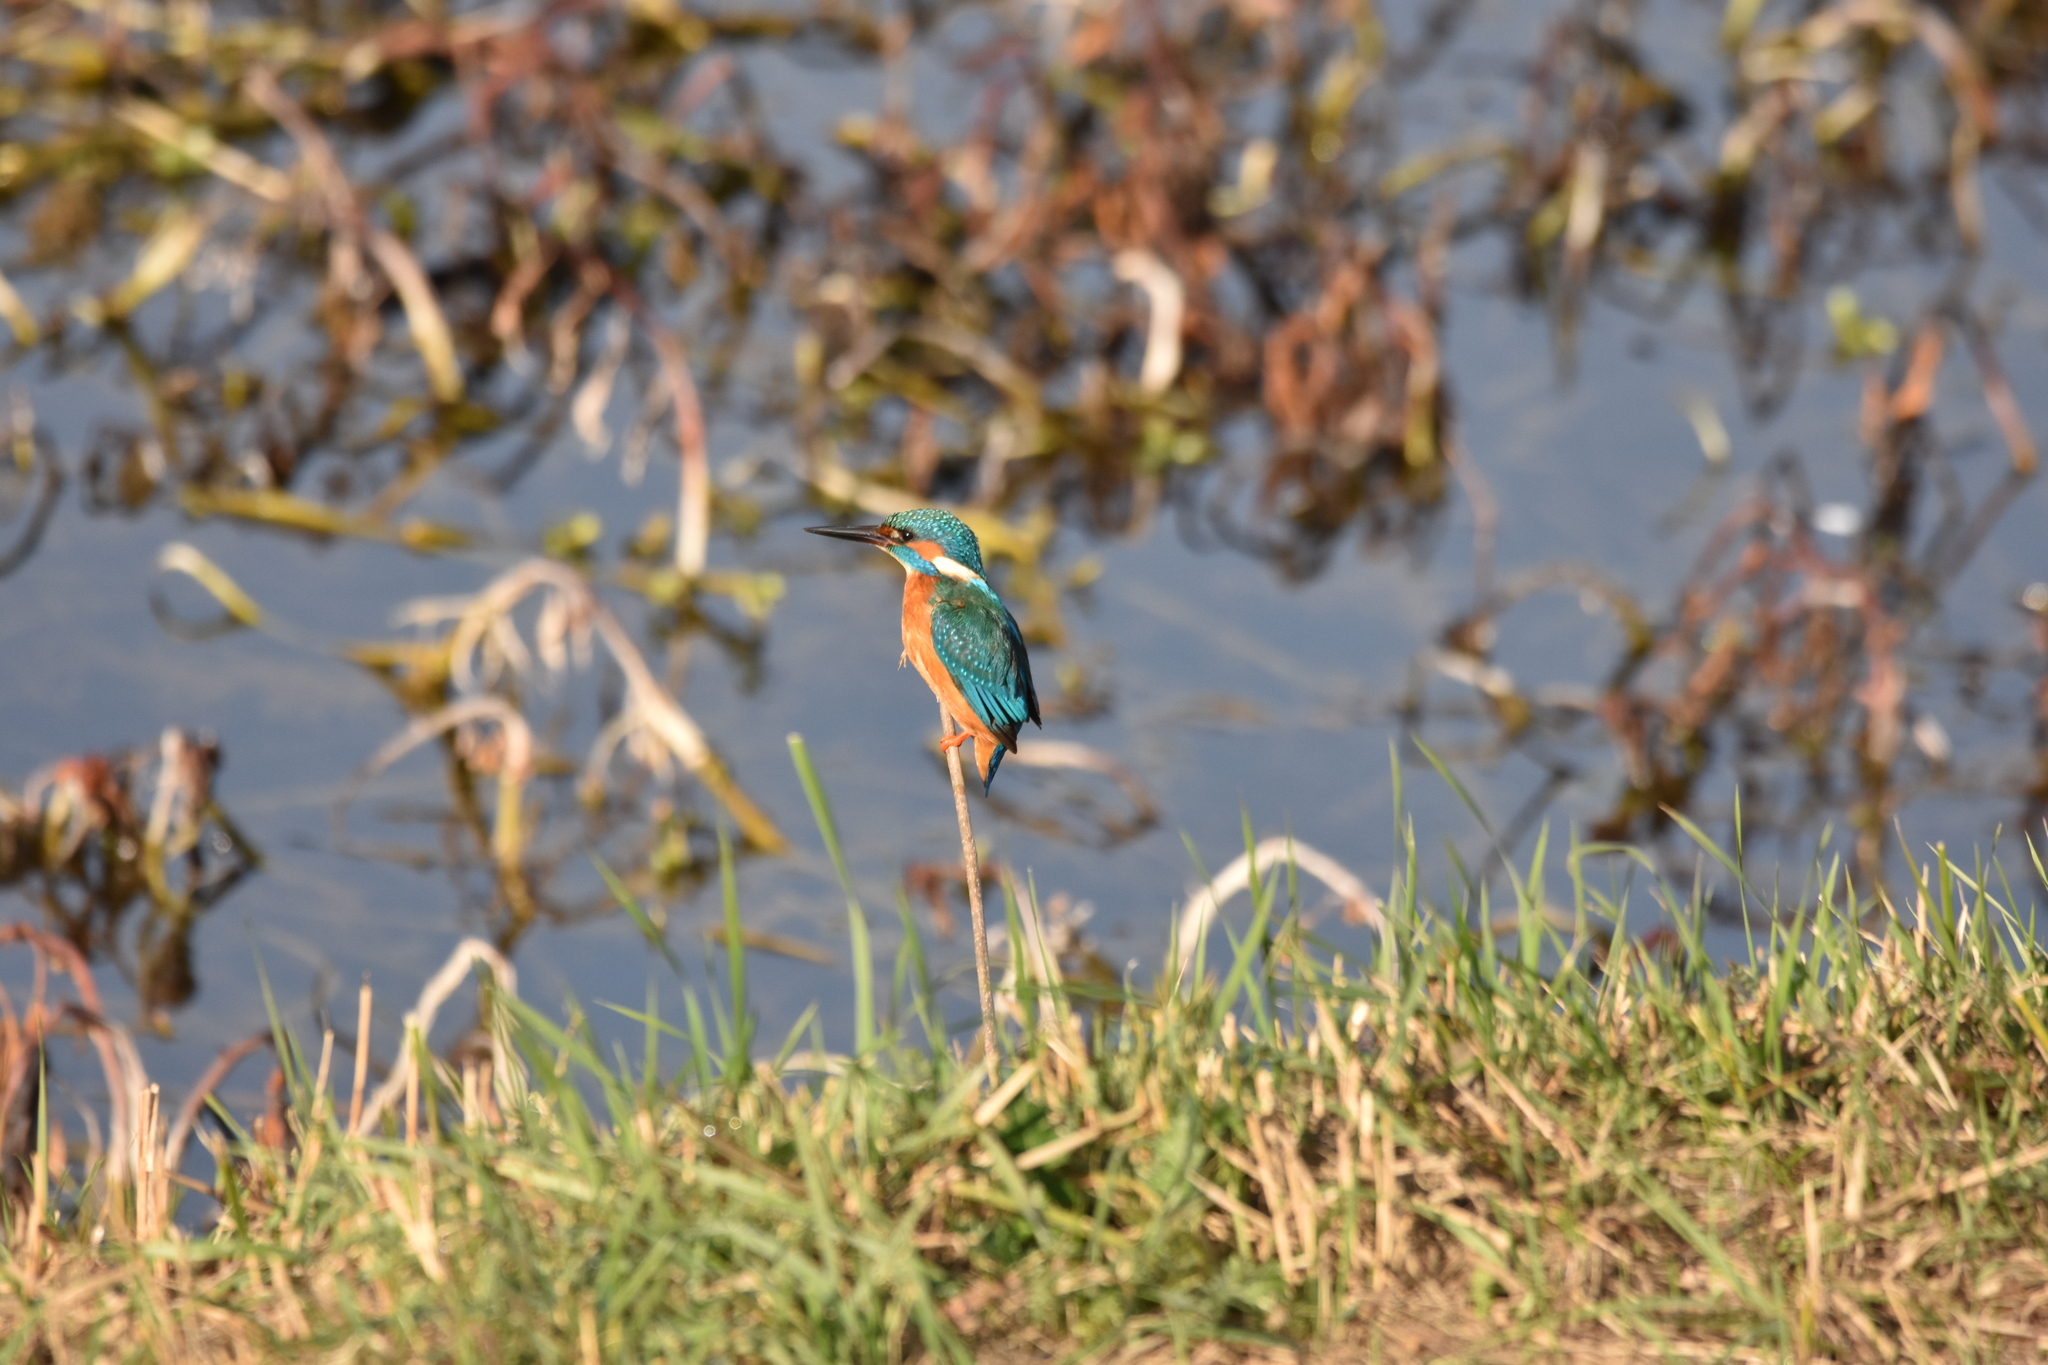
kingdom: Animalia
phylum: Chordata
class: Aves
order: Coraciiformes
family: Alcedinidae
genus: Alcedo
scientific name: Alcedo atthis
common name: Common kingfisher
